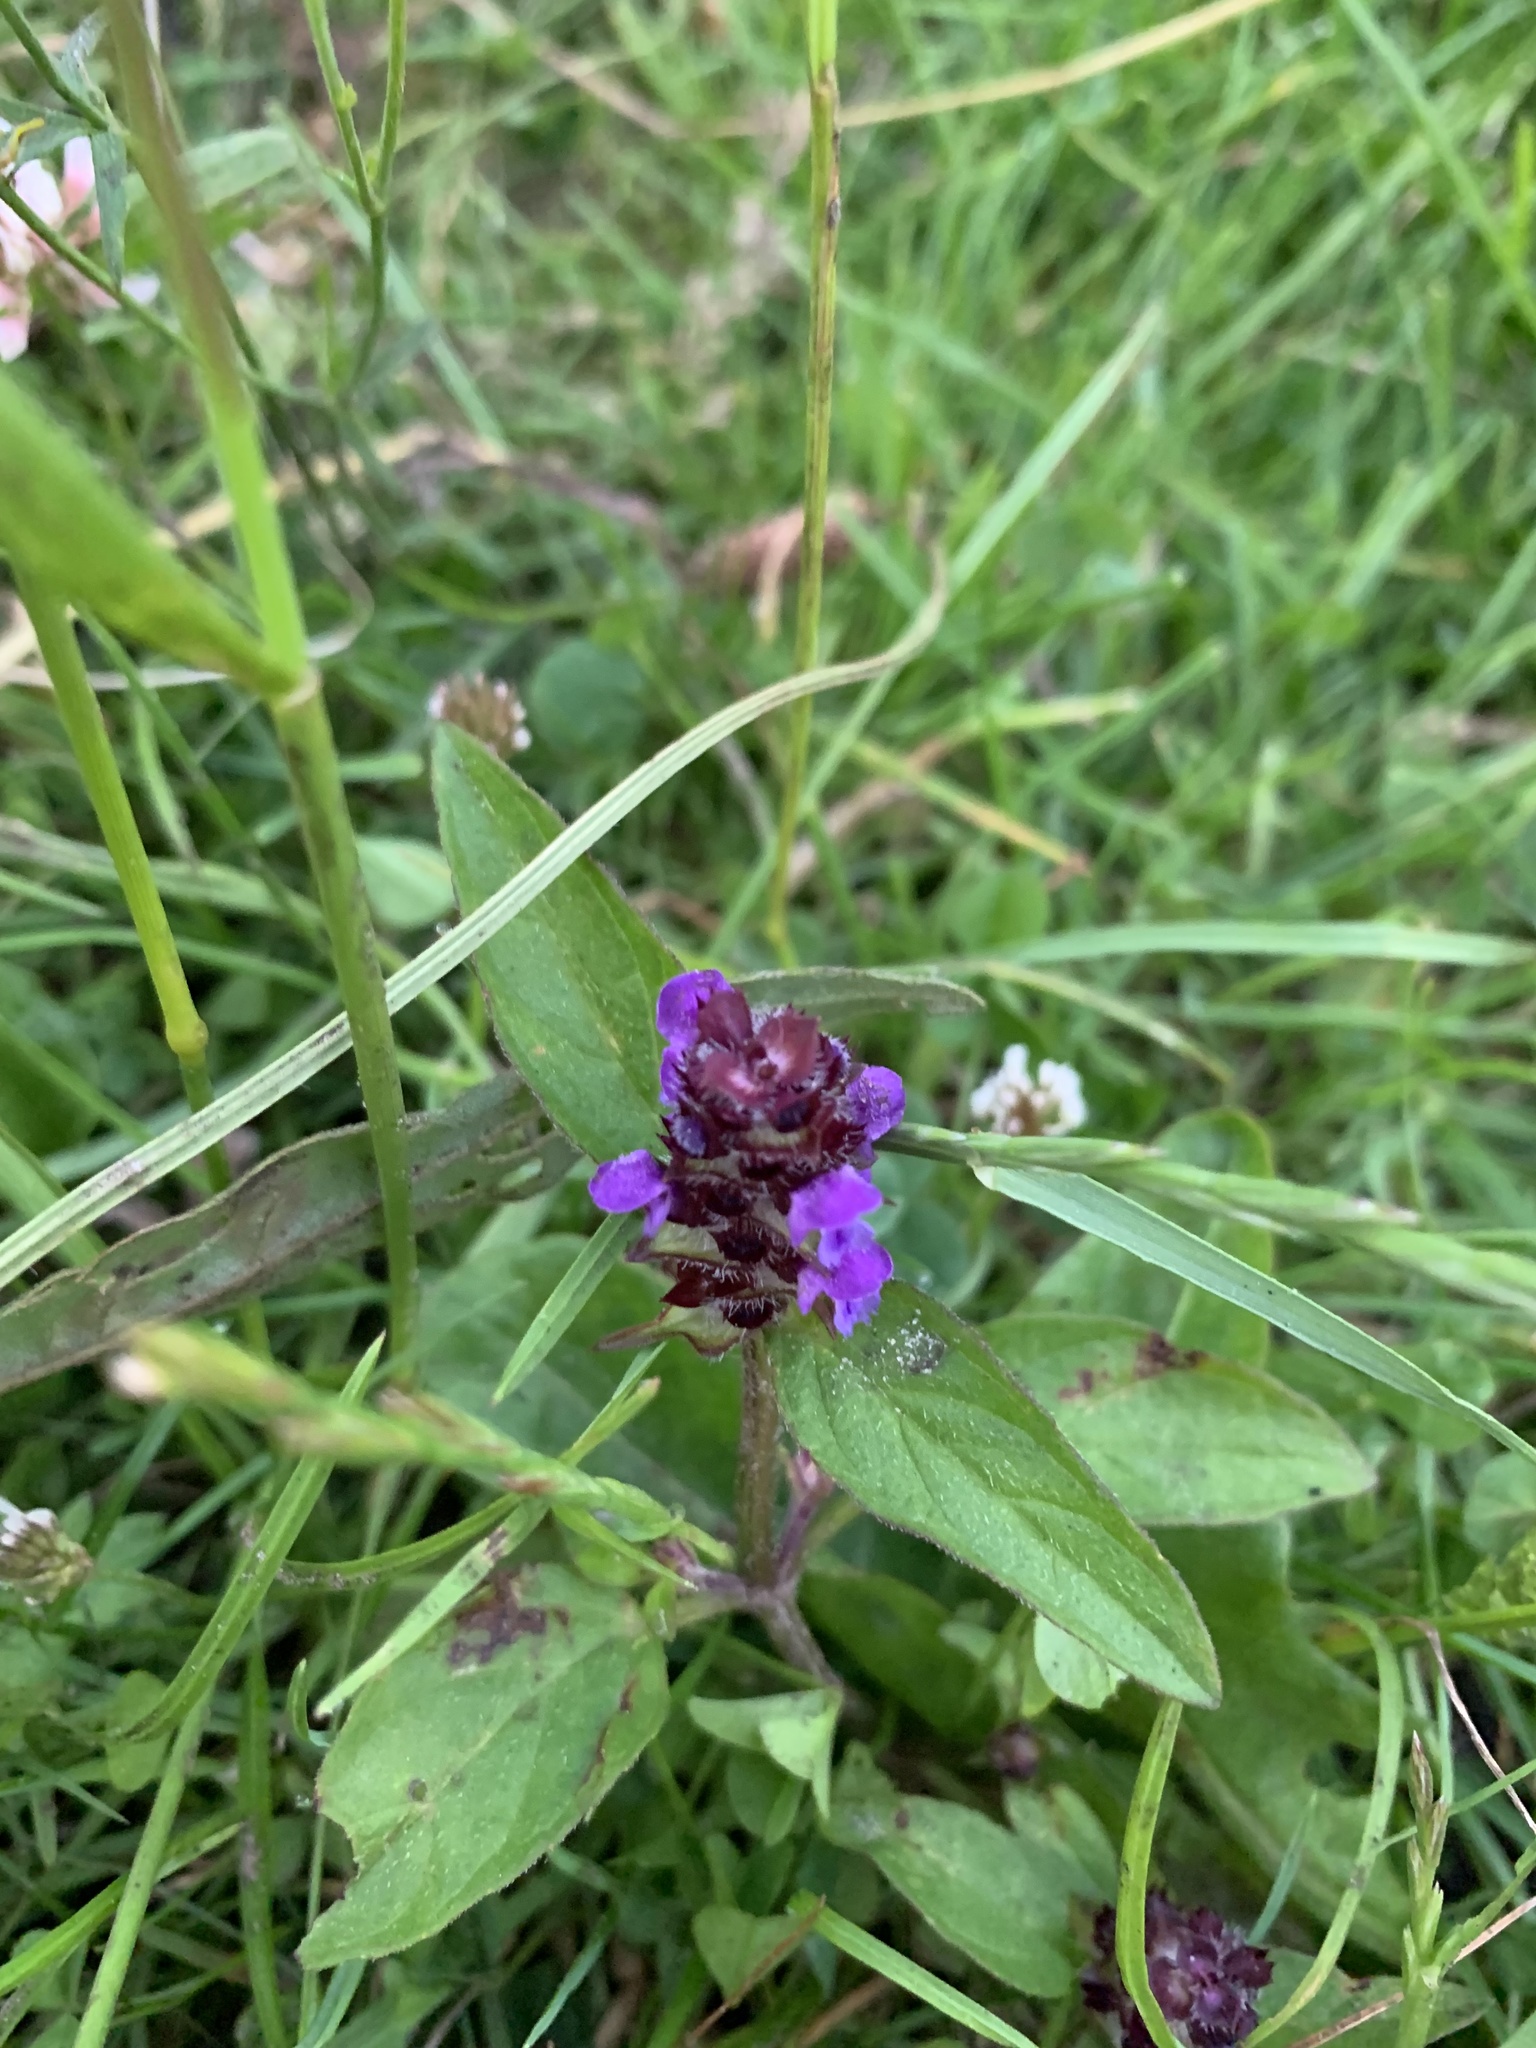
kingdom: Plantae
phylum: Tracheophyta
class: Magnoliopsida
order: Lamiales
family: Lamiaceae
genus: Prunella
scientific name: Prunella vulgaris
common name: Heal-all
